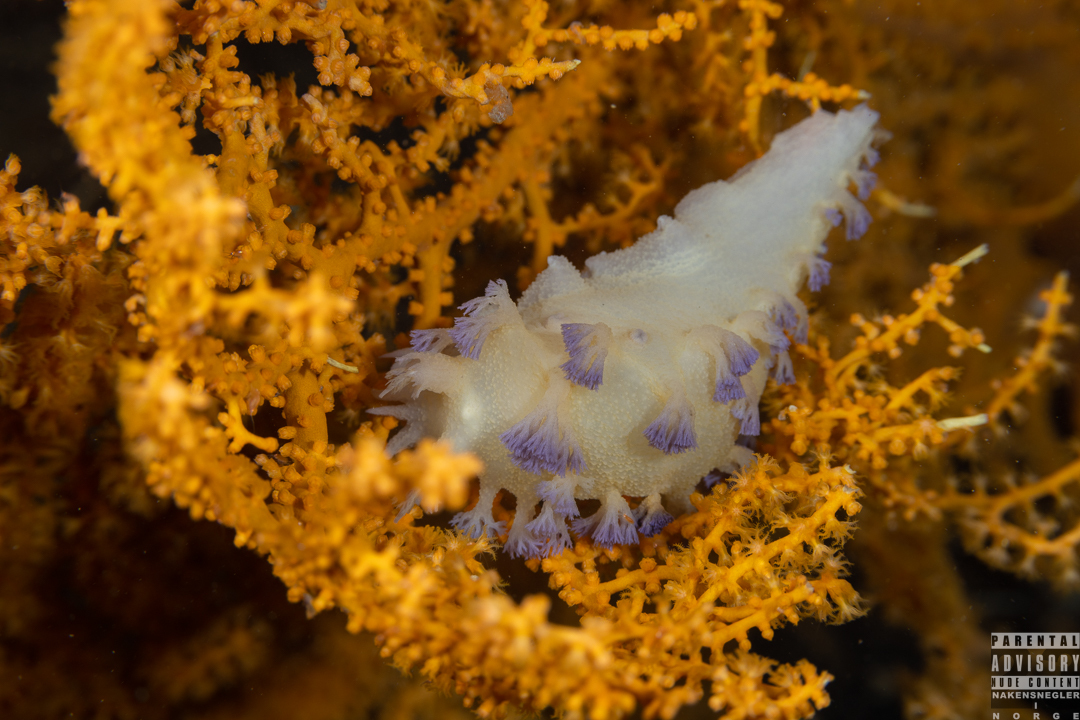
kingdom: Animalia
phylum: Mollusca
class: Gastropoda
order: Nudibranchia
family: Tritoniidae
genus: Tritonia
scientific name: Tritonia griegi
